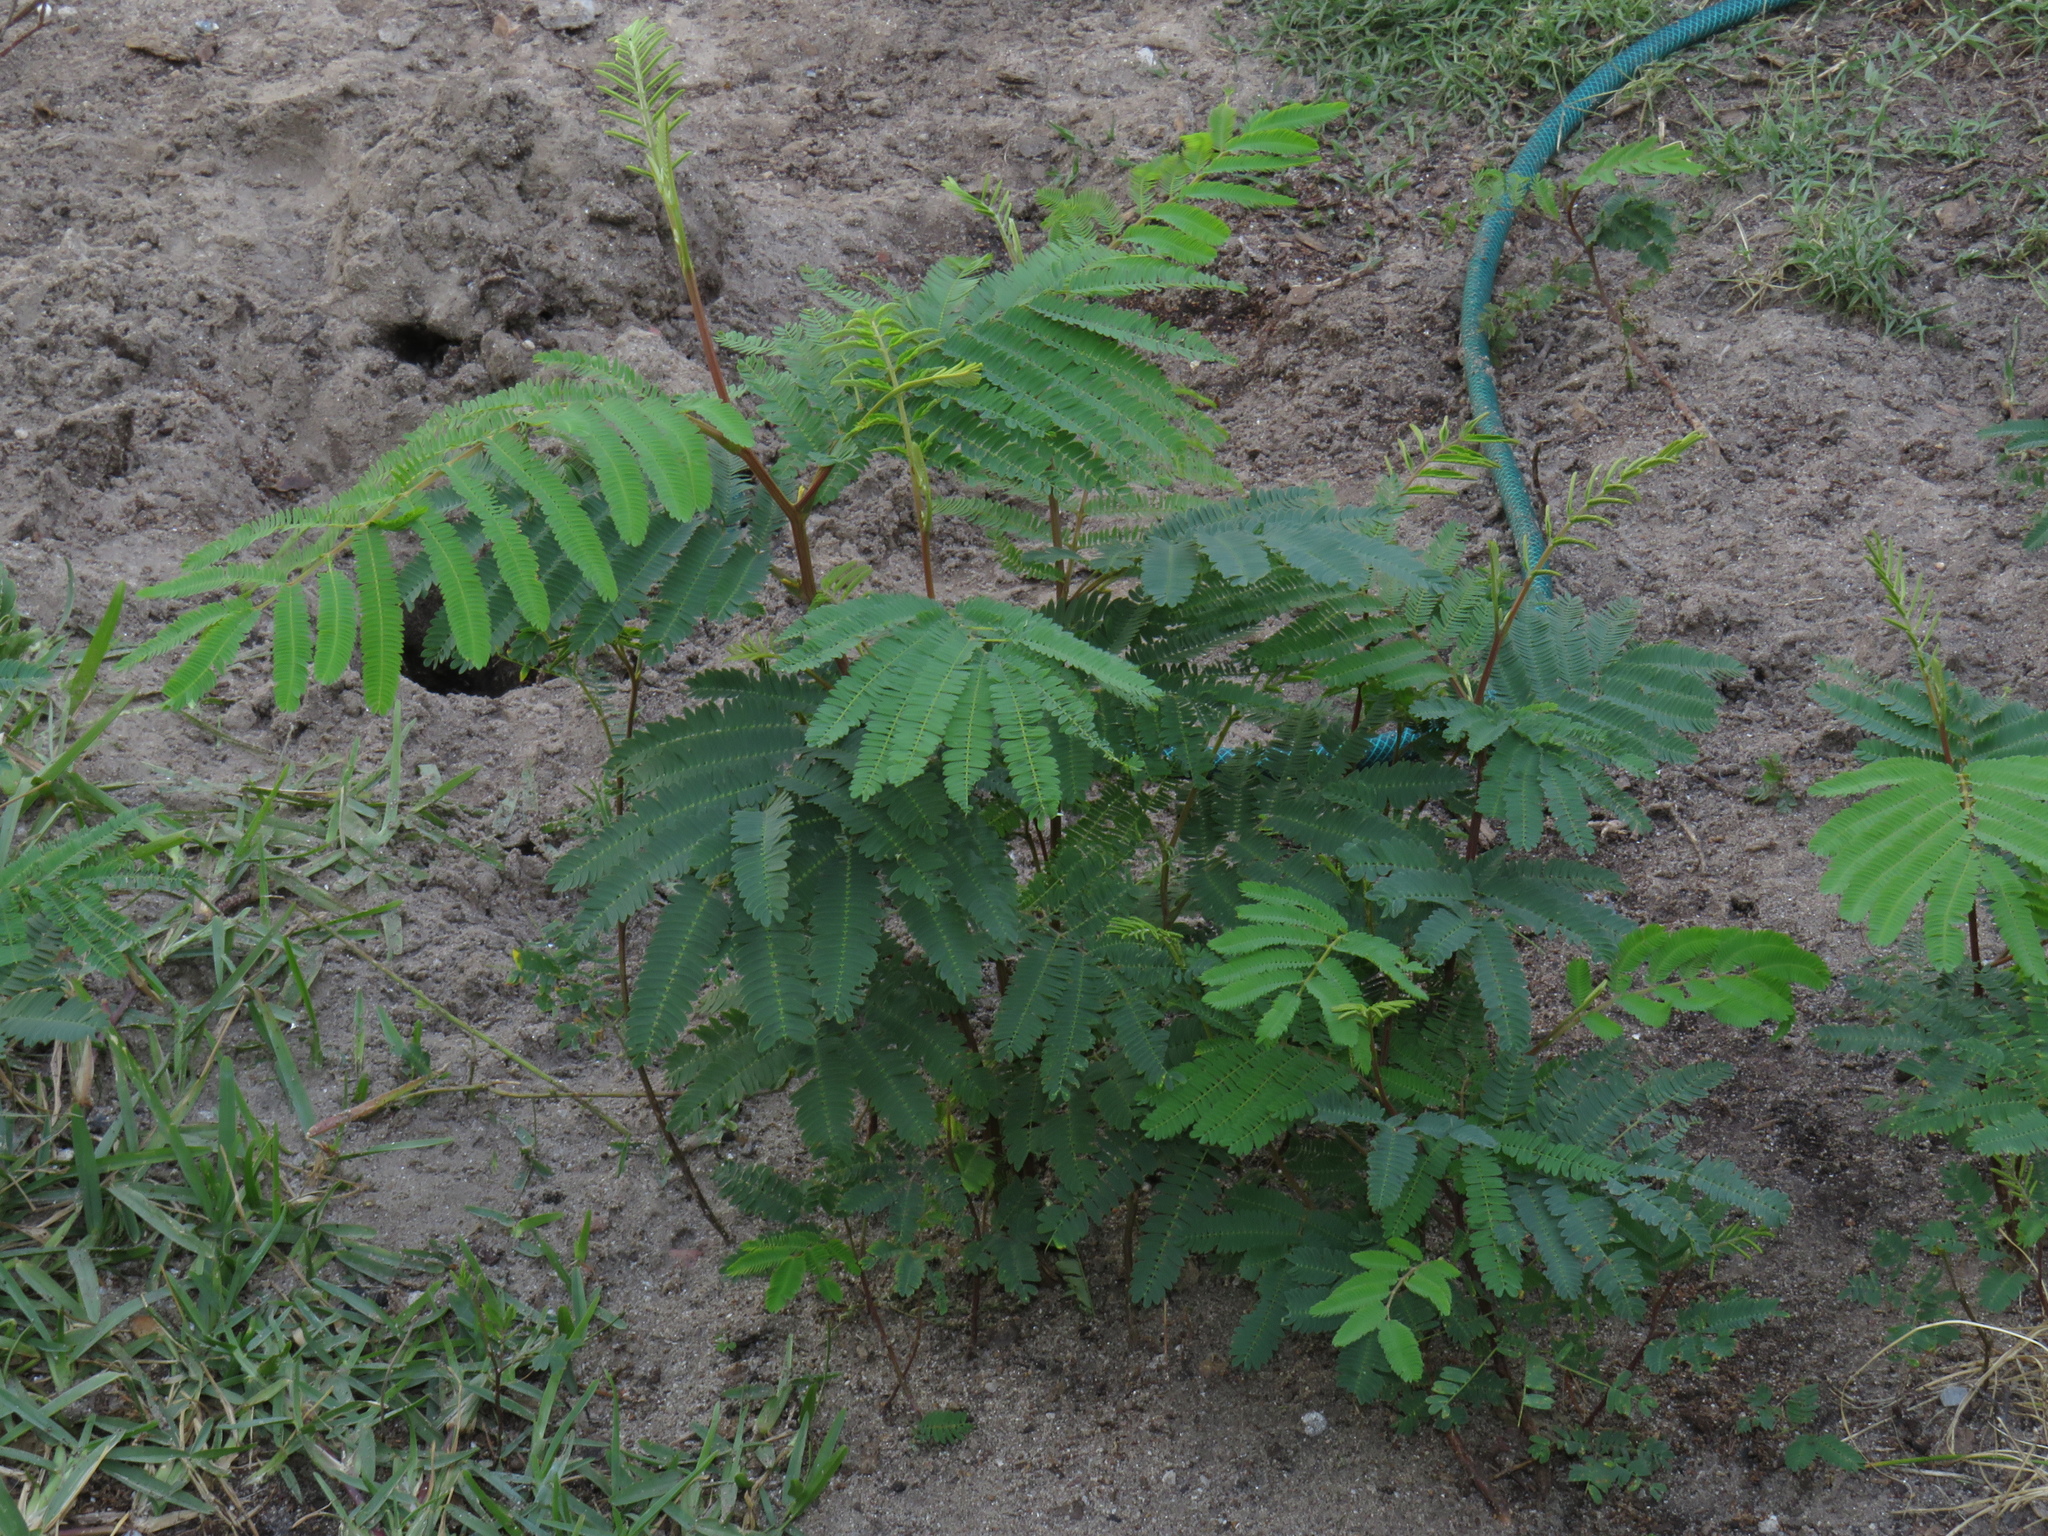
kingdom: Plantae
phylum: Tracheophyta
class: Magnoliopsida
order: Fabales
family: Fabaceae
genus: Paraserianthes
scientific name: Paraserianthes lophantha
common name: Plume albizia
